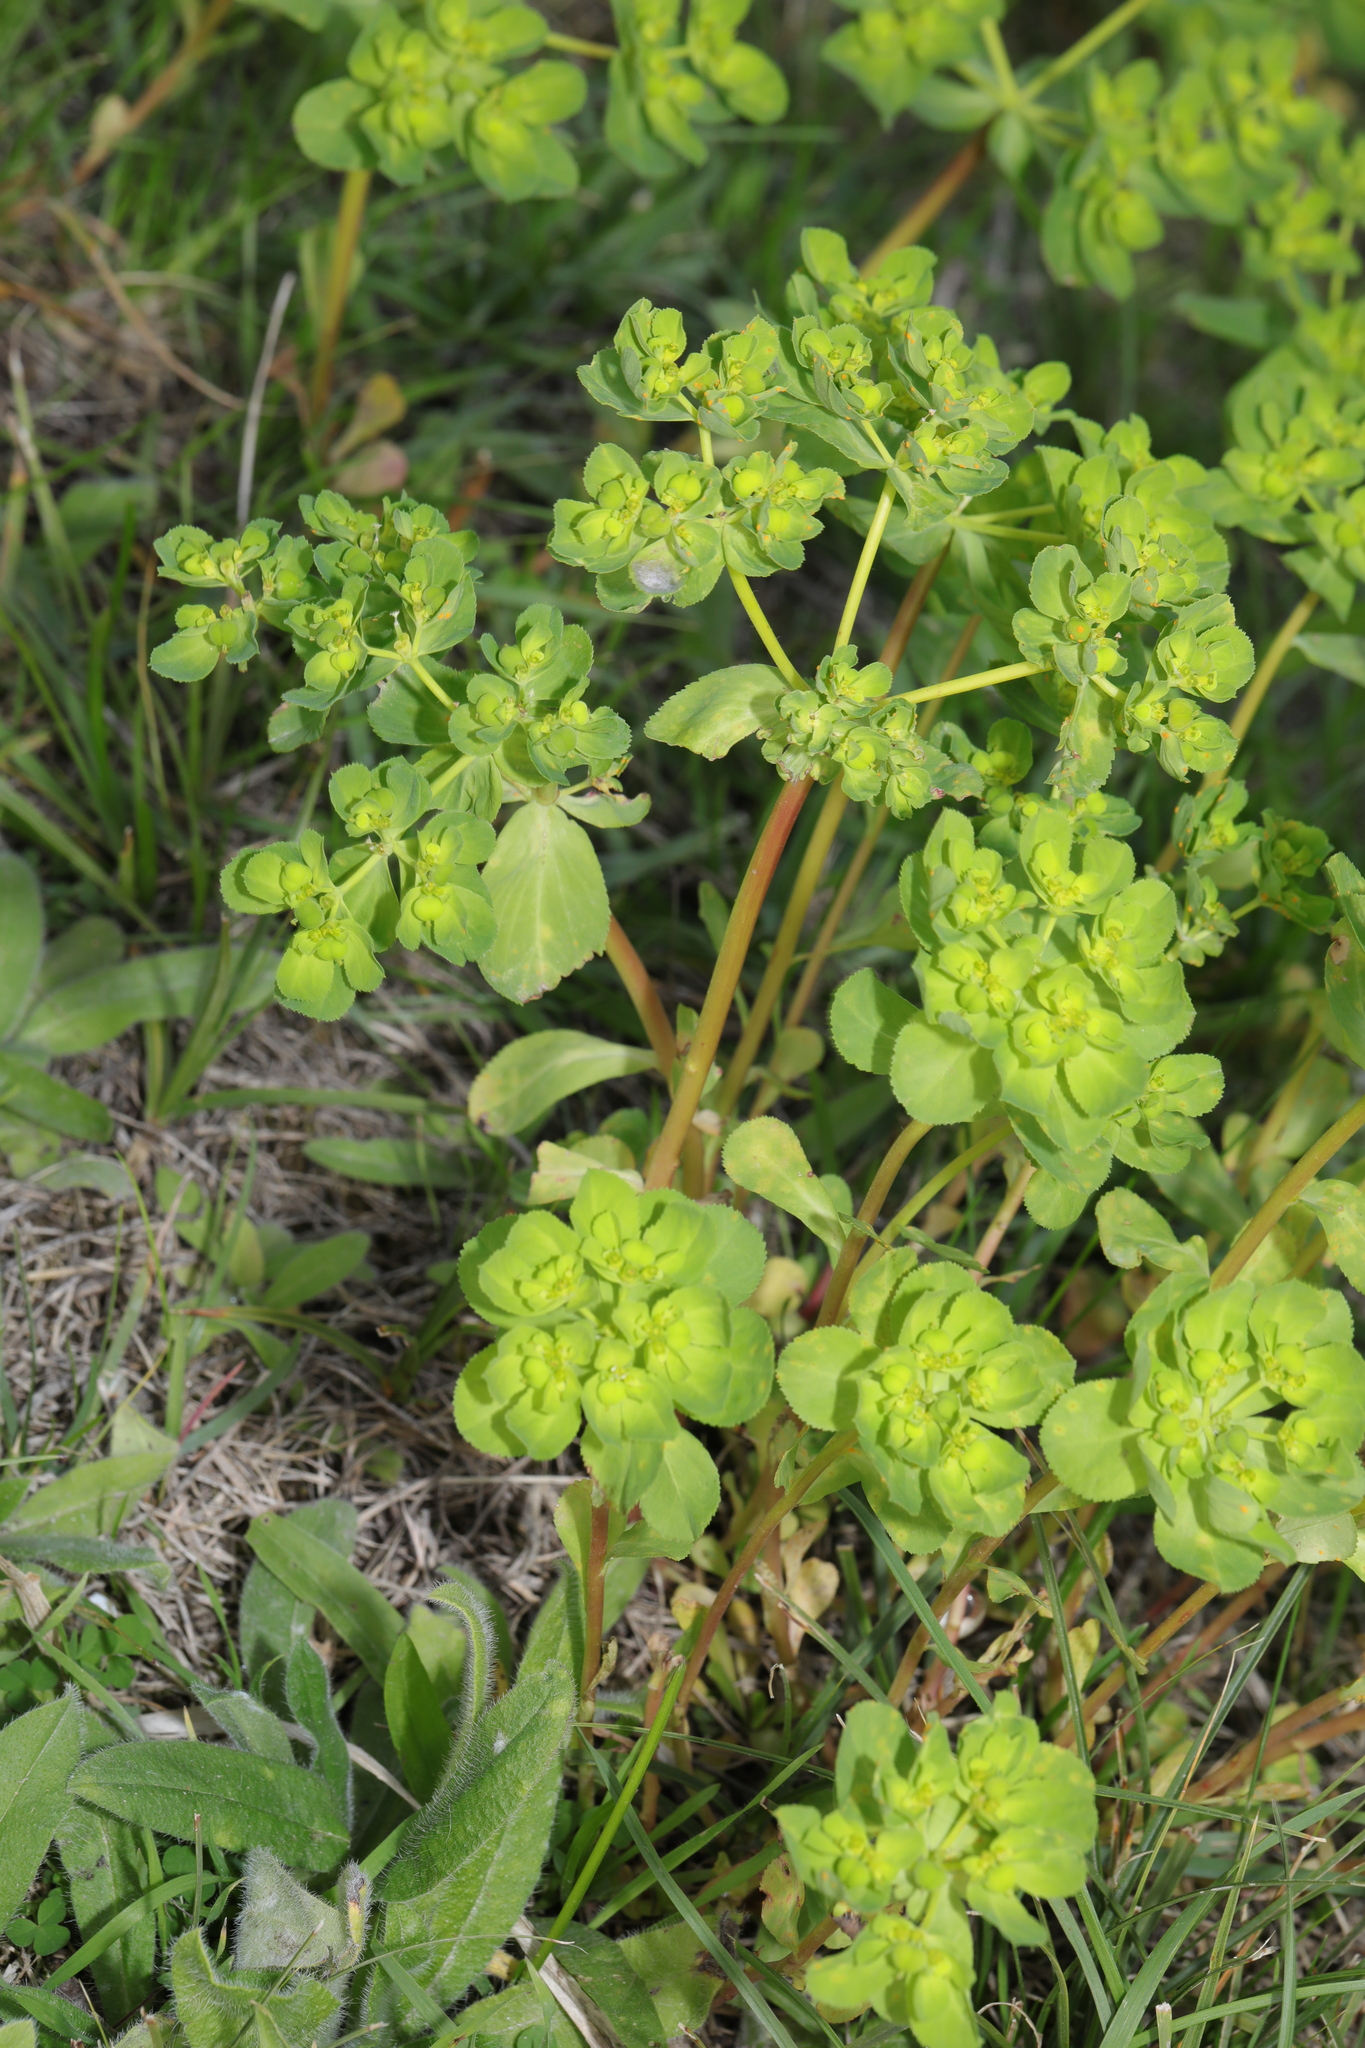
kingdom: Plantae
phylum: Tracheophyta
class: Magnoliopsida
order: Malpighiales
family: Euphorbiaceae
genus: Euphorbia
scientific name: Euphorbia helioscopia
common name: Sun spurge
